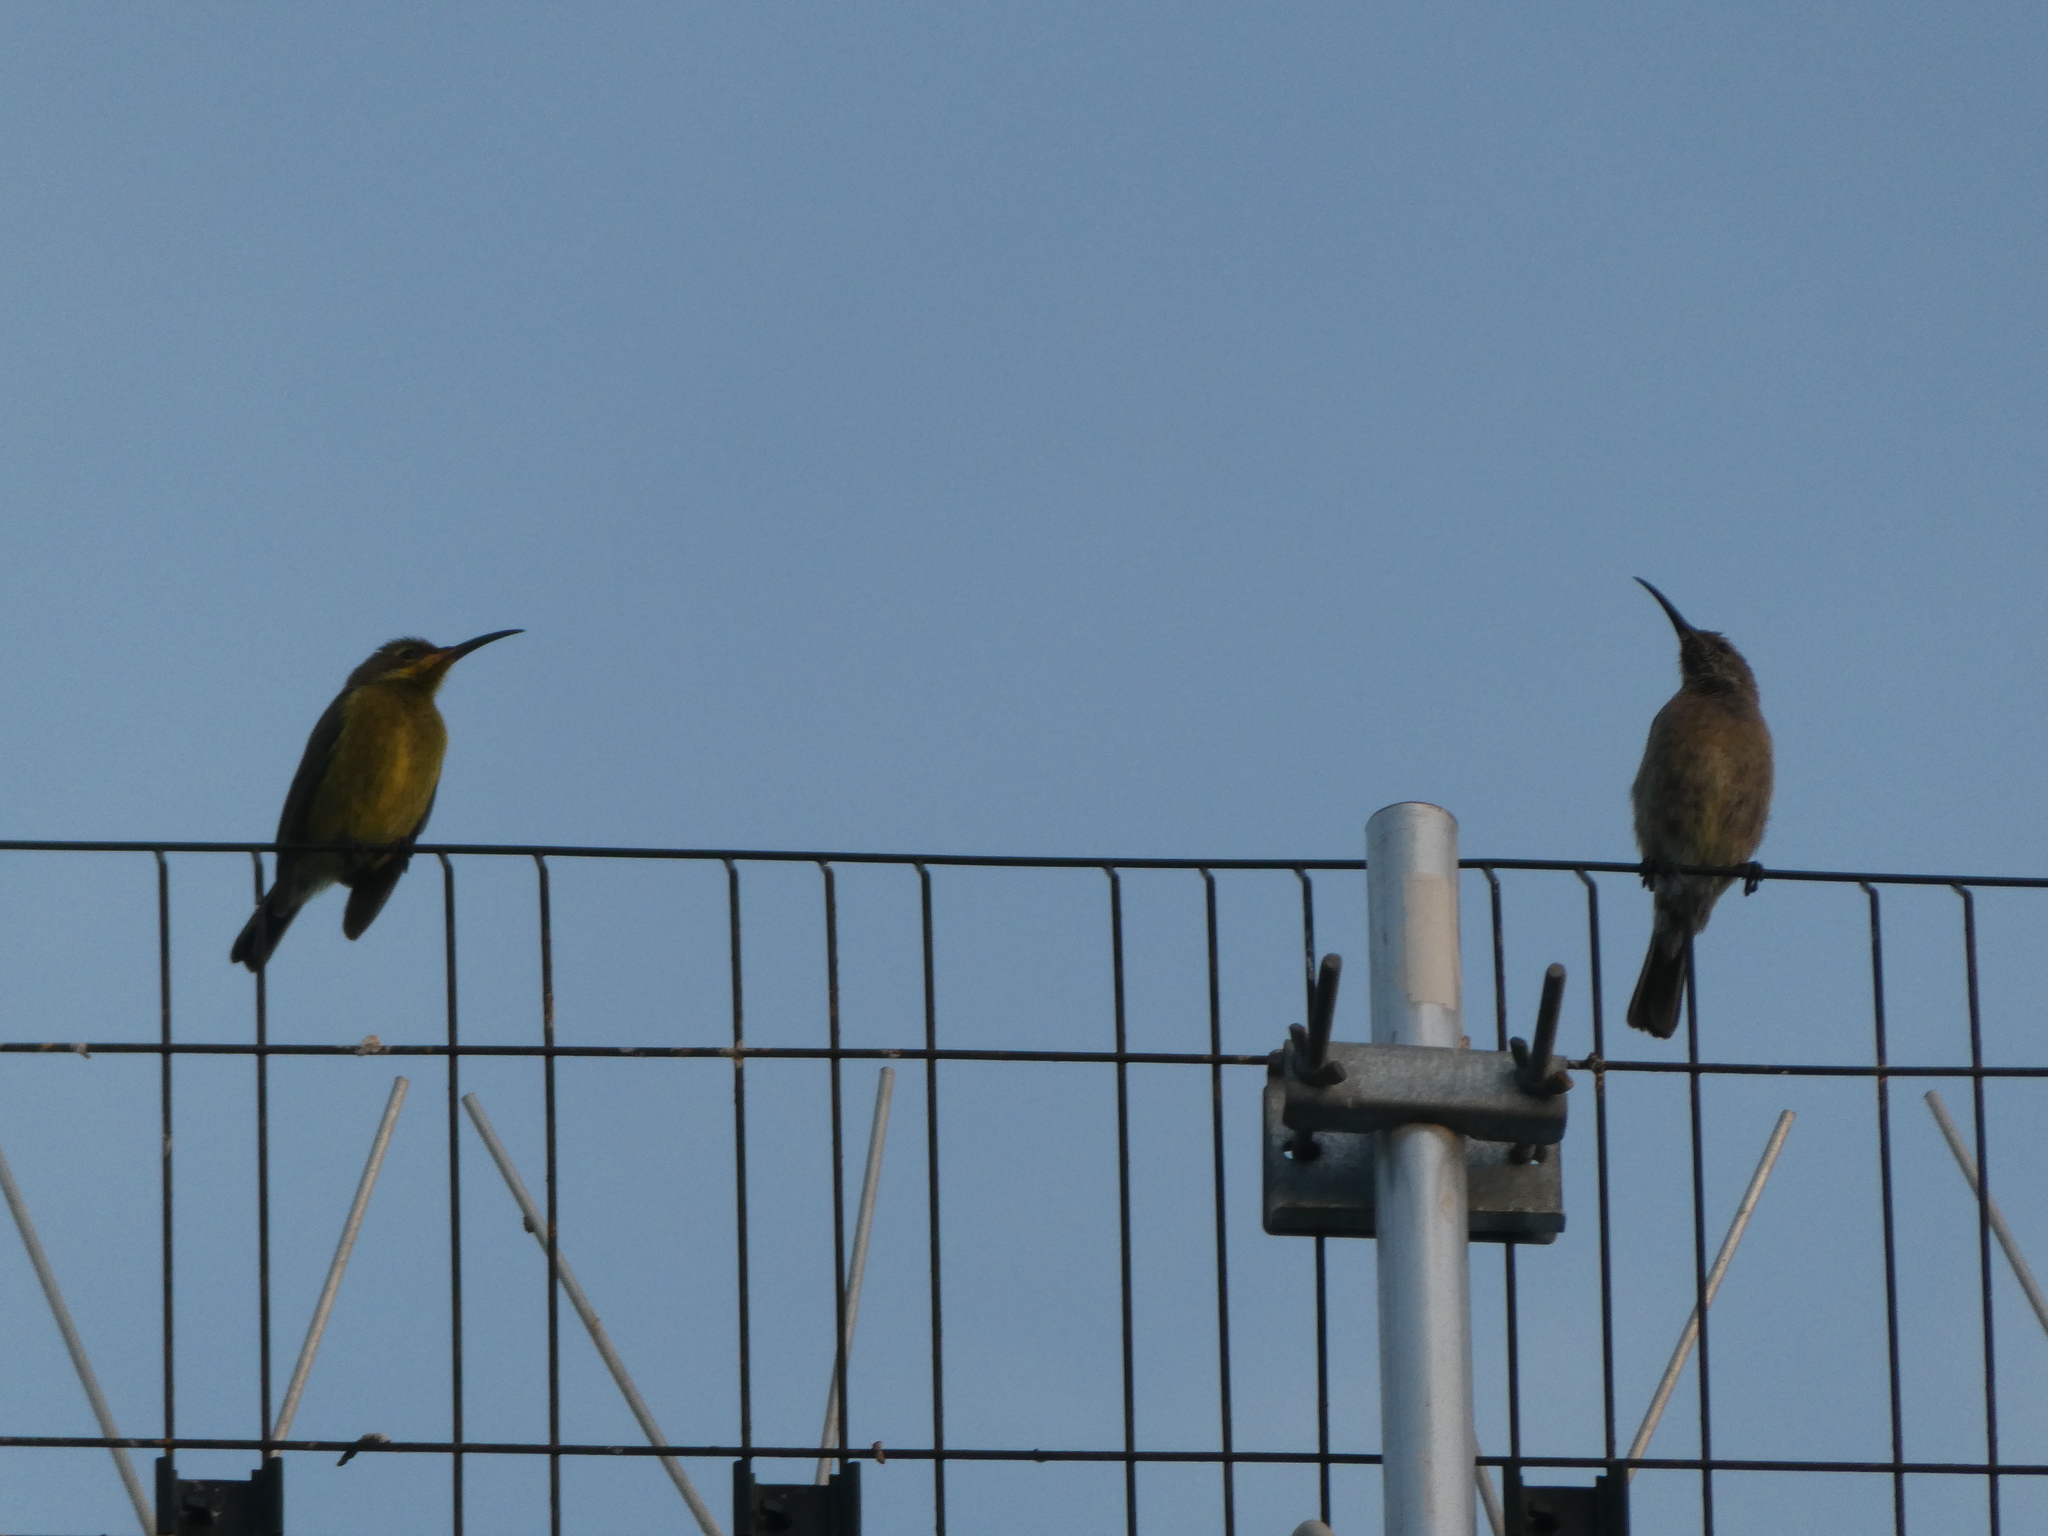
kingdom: Animalia
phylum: Chordata
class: Aves
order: Passeriformes
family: Nectariniidae
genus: Nectarinia
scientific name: Nectarinia famosa
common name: Malachite sunbird
